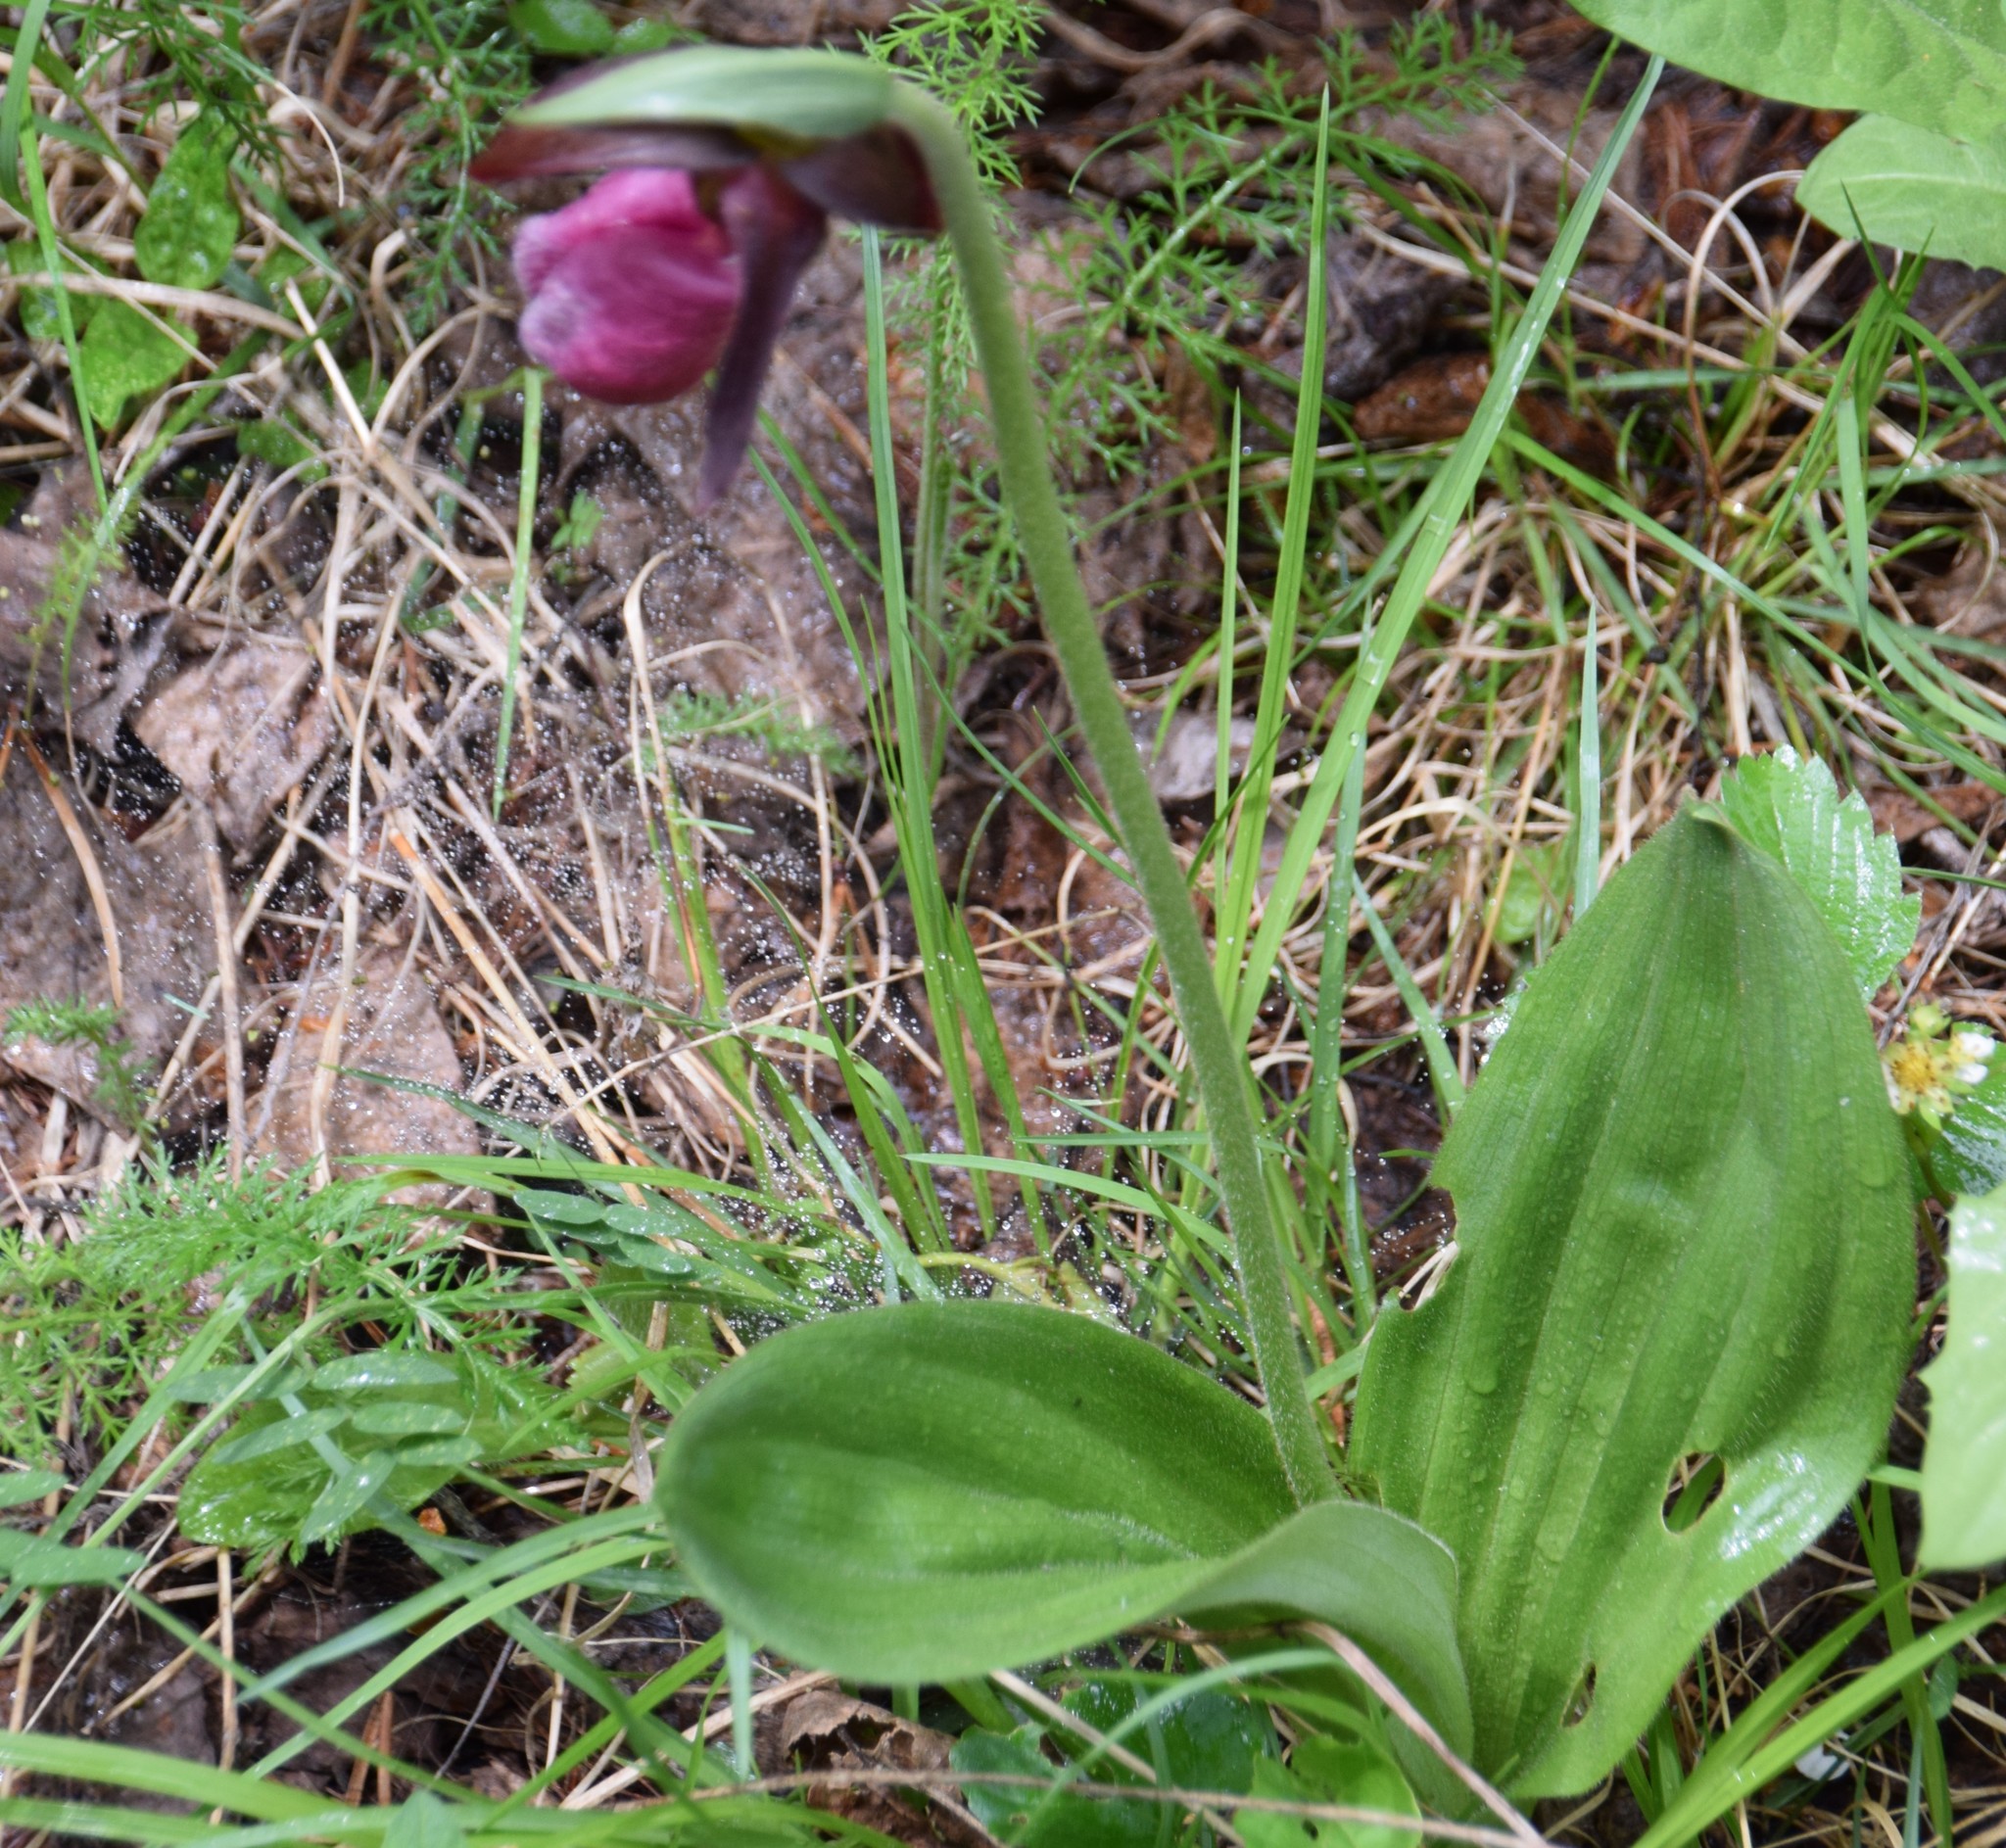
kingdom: Plantae
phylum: Tracheophyta
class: Liliopsida
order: Asparagales
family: Orchidaceae
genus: Cypripedium
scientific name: Cypripedium acaule
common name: Pink lady's-slipper
